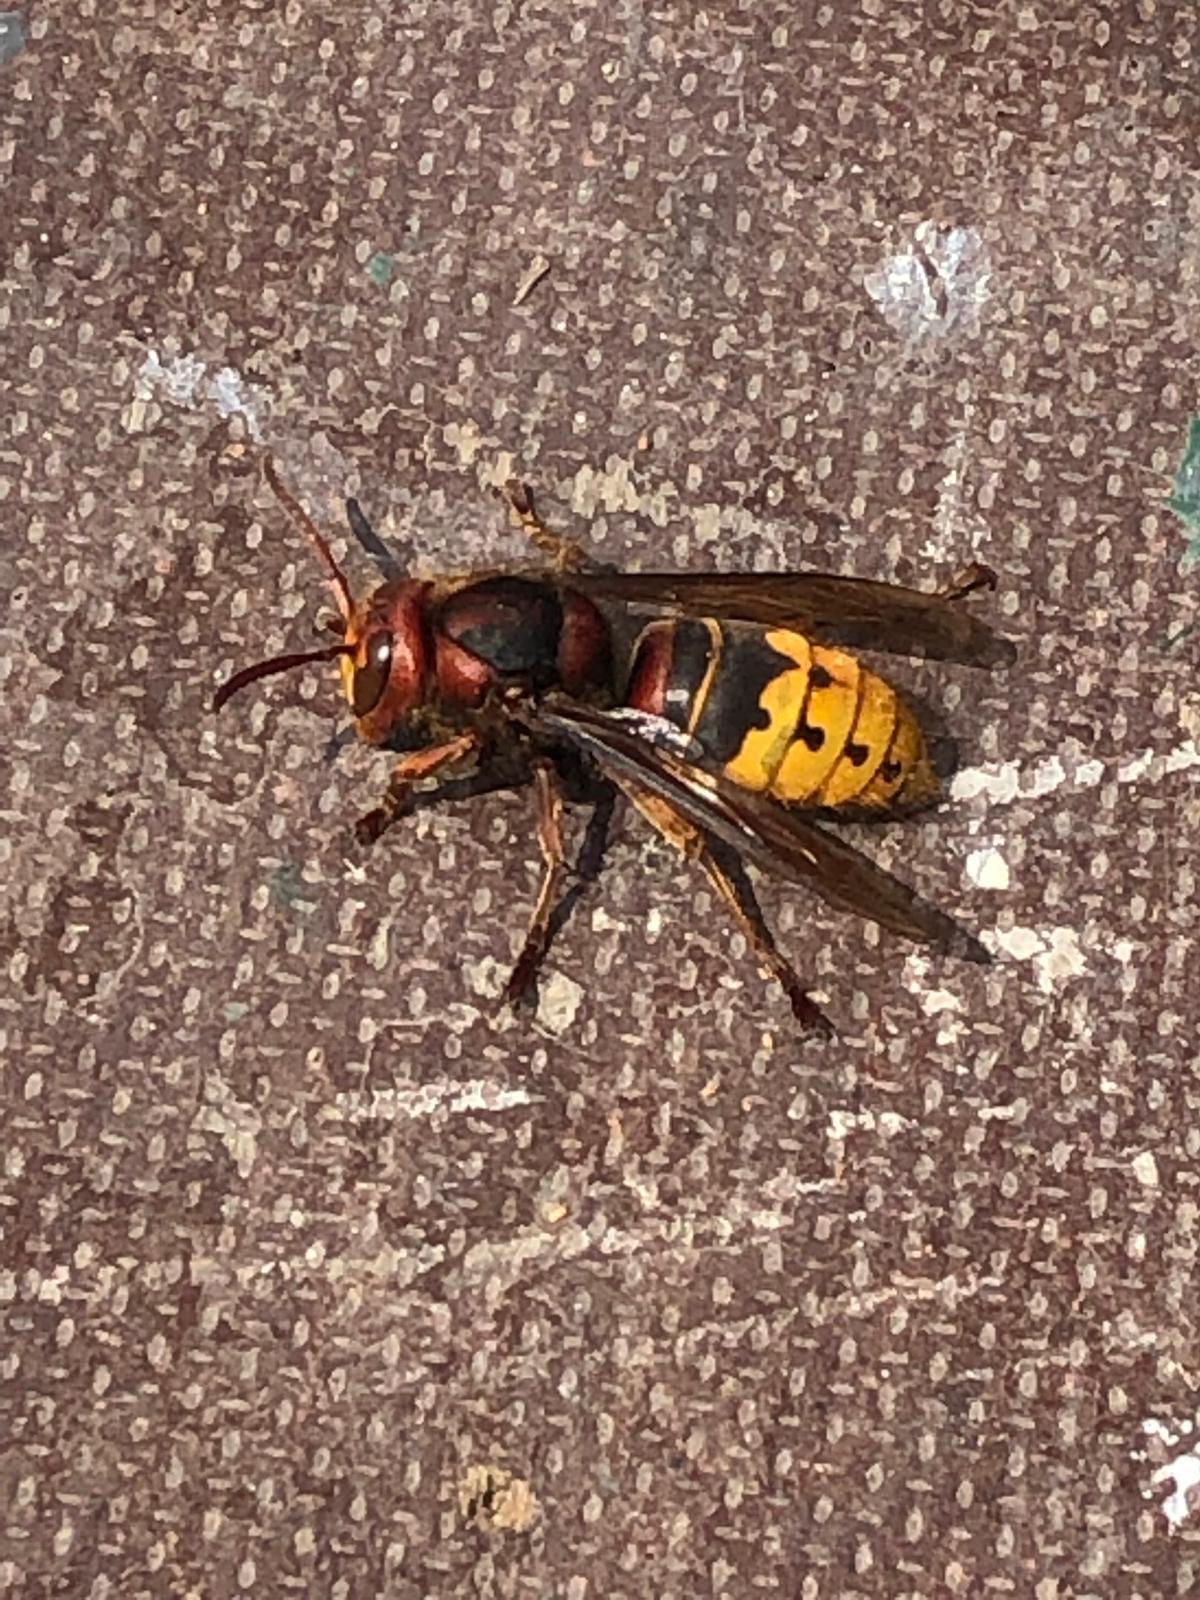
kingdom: Animalia
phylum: Arthropoda
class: Insecta
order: Hymenoptera
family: Vespidae
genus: Vespa
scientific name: Vespa crabro
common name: Hornet
